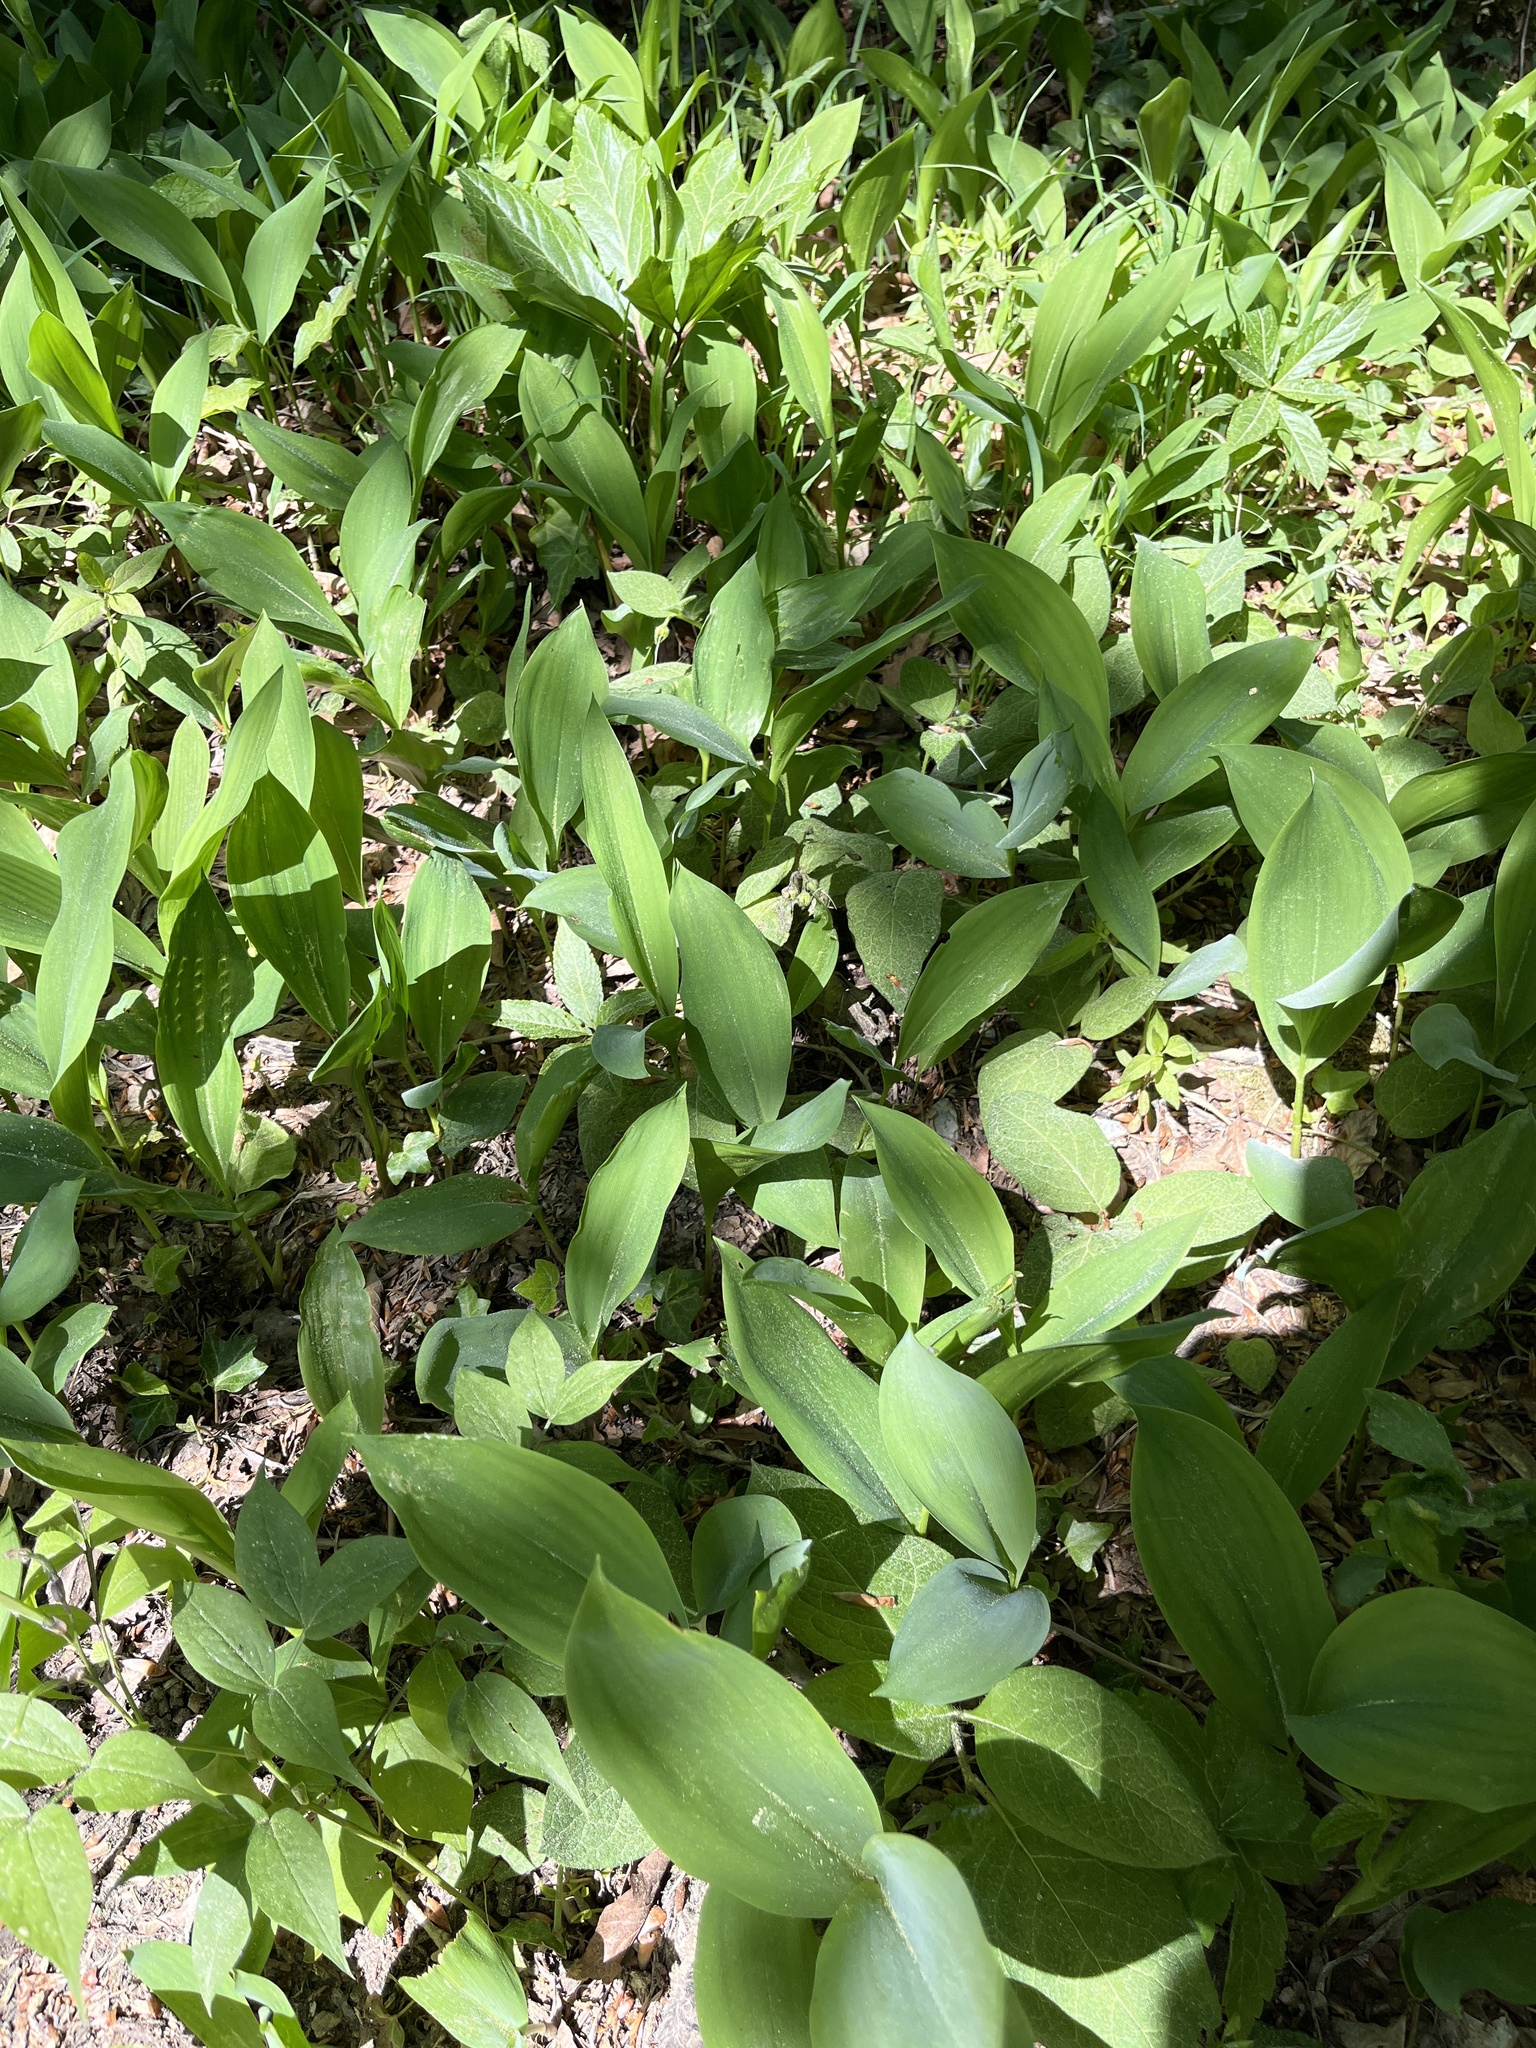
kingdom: Plantae
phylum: Tracheophyta
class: Liliopsida
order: Asparagales
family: Asparagaceae
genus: Convallaria
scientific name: Convallaria majalis
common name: Lily-of-the-valley
